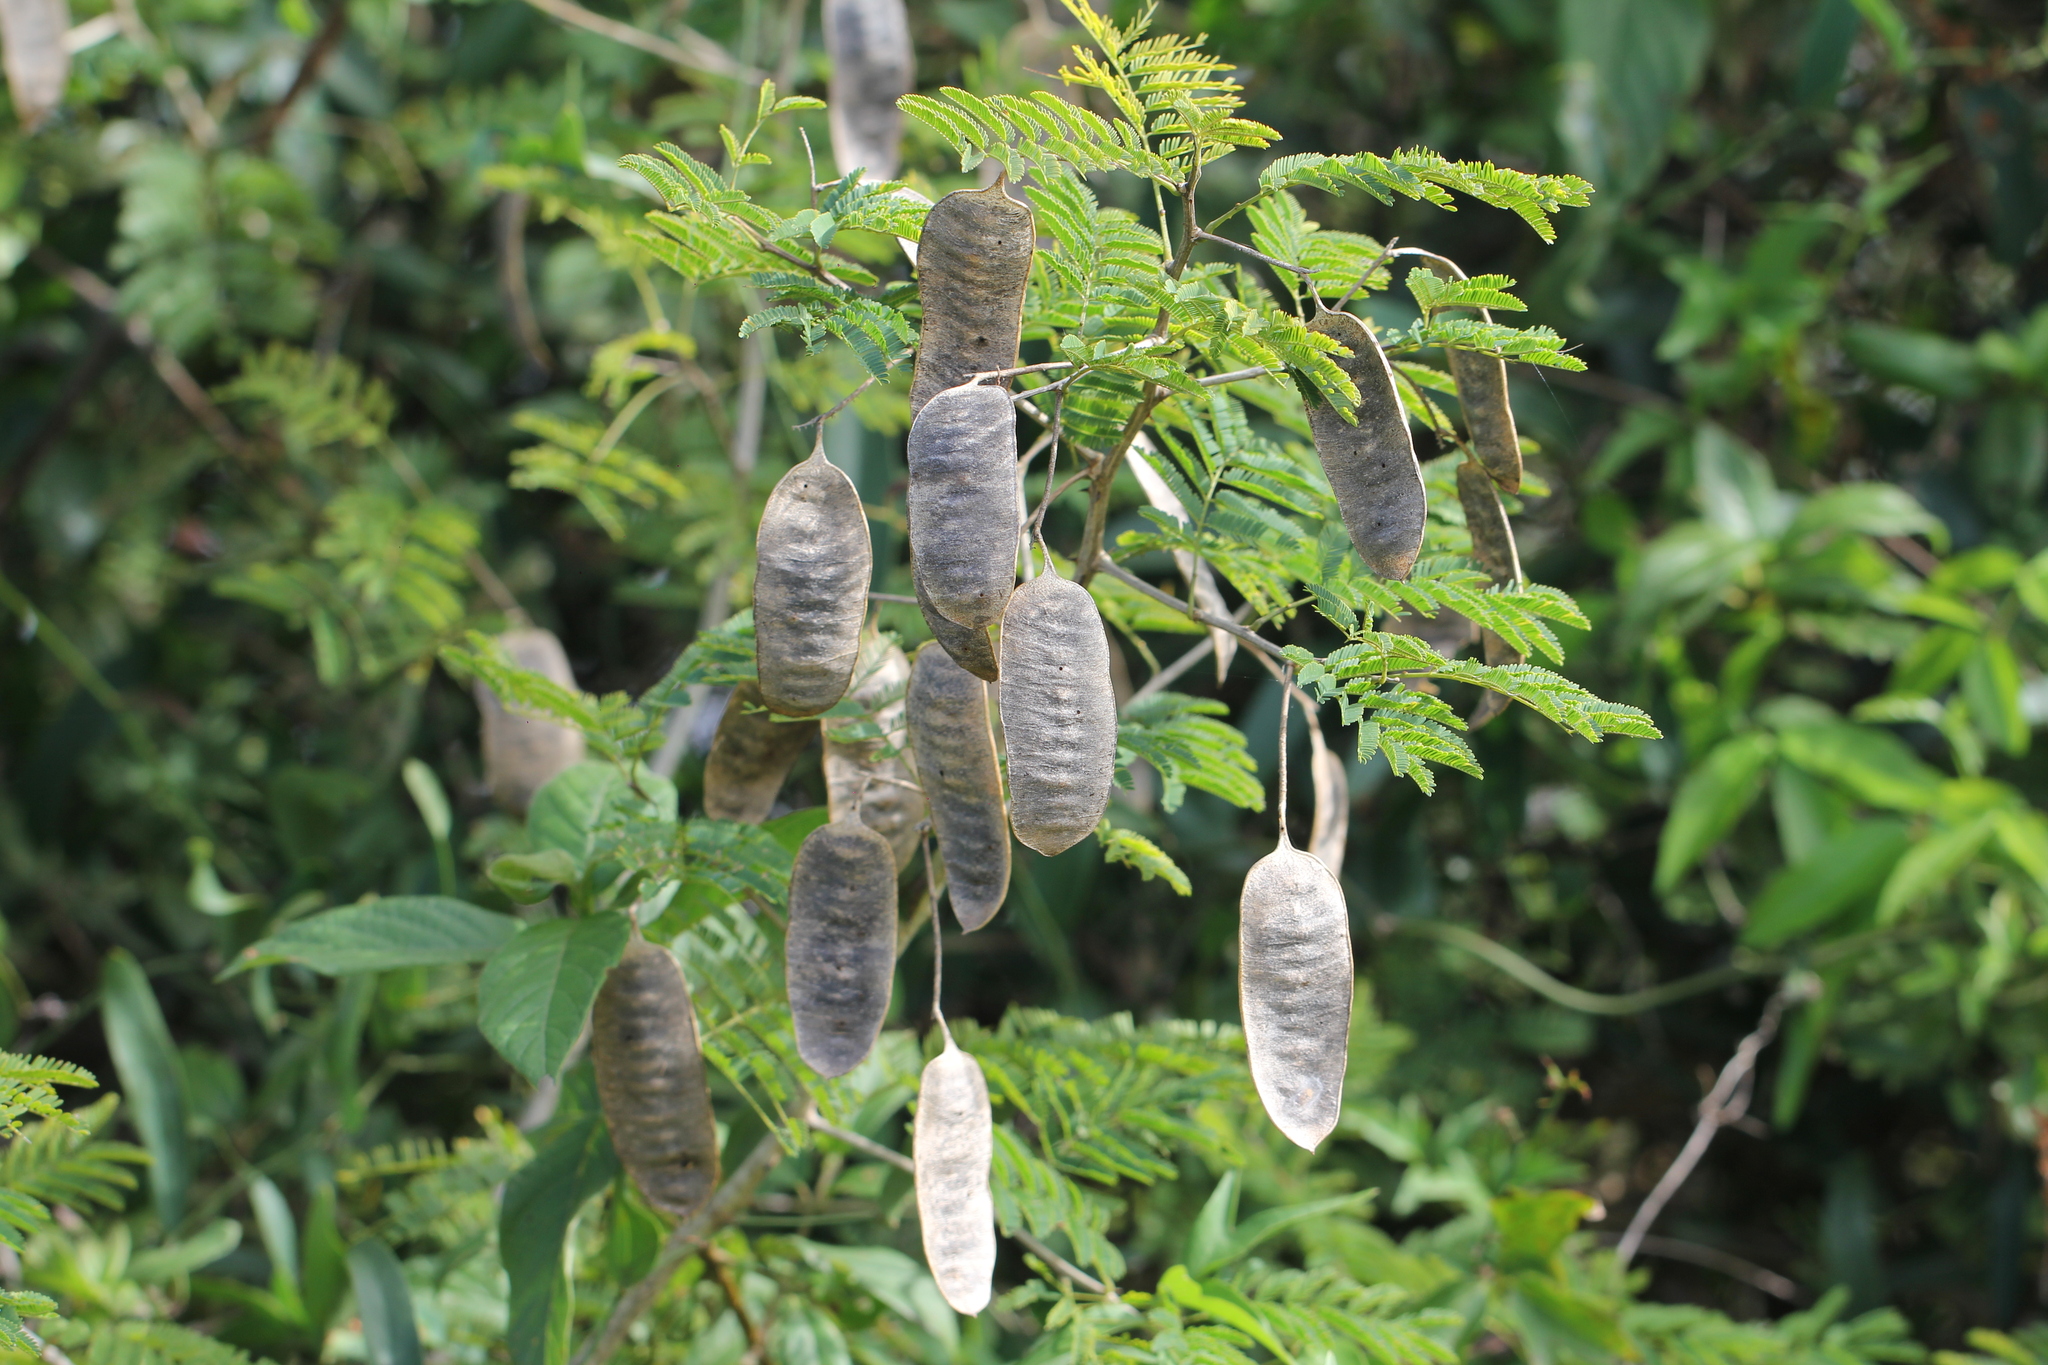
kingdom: Plantae
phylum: Tracheophyta
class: Magnoliopsida
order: Fabales
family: Fabaceae
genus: Senegalia
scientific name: Senegalia bonariensis
